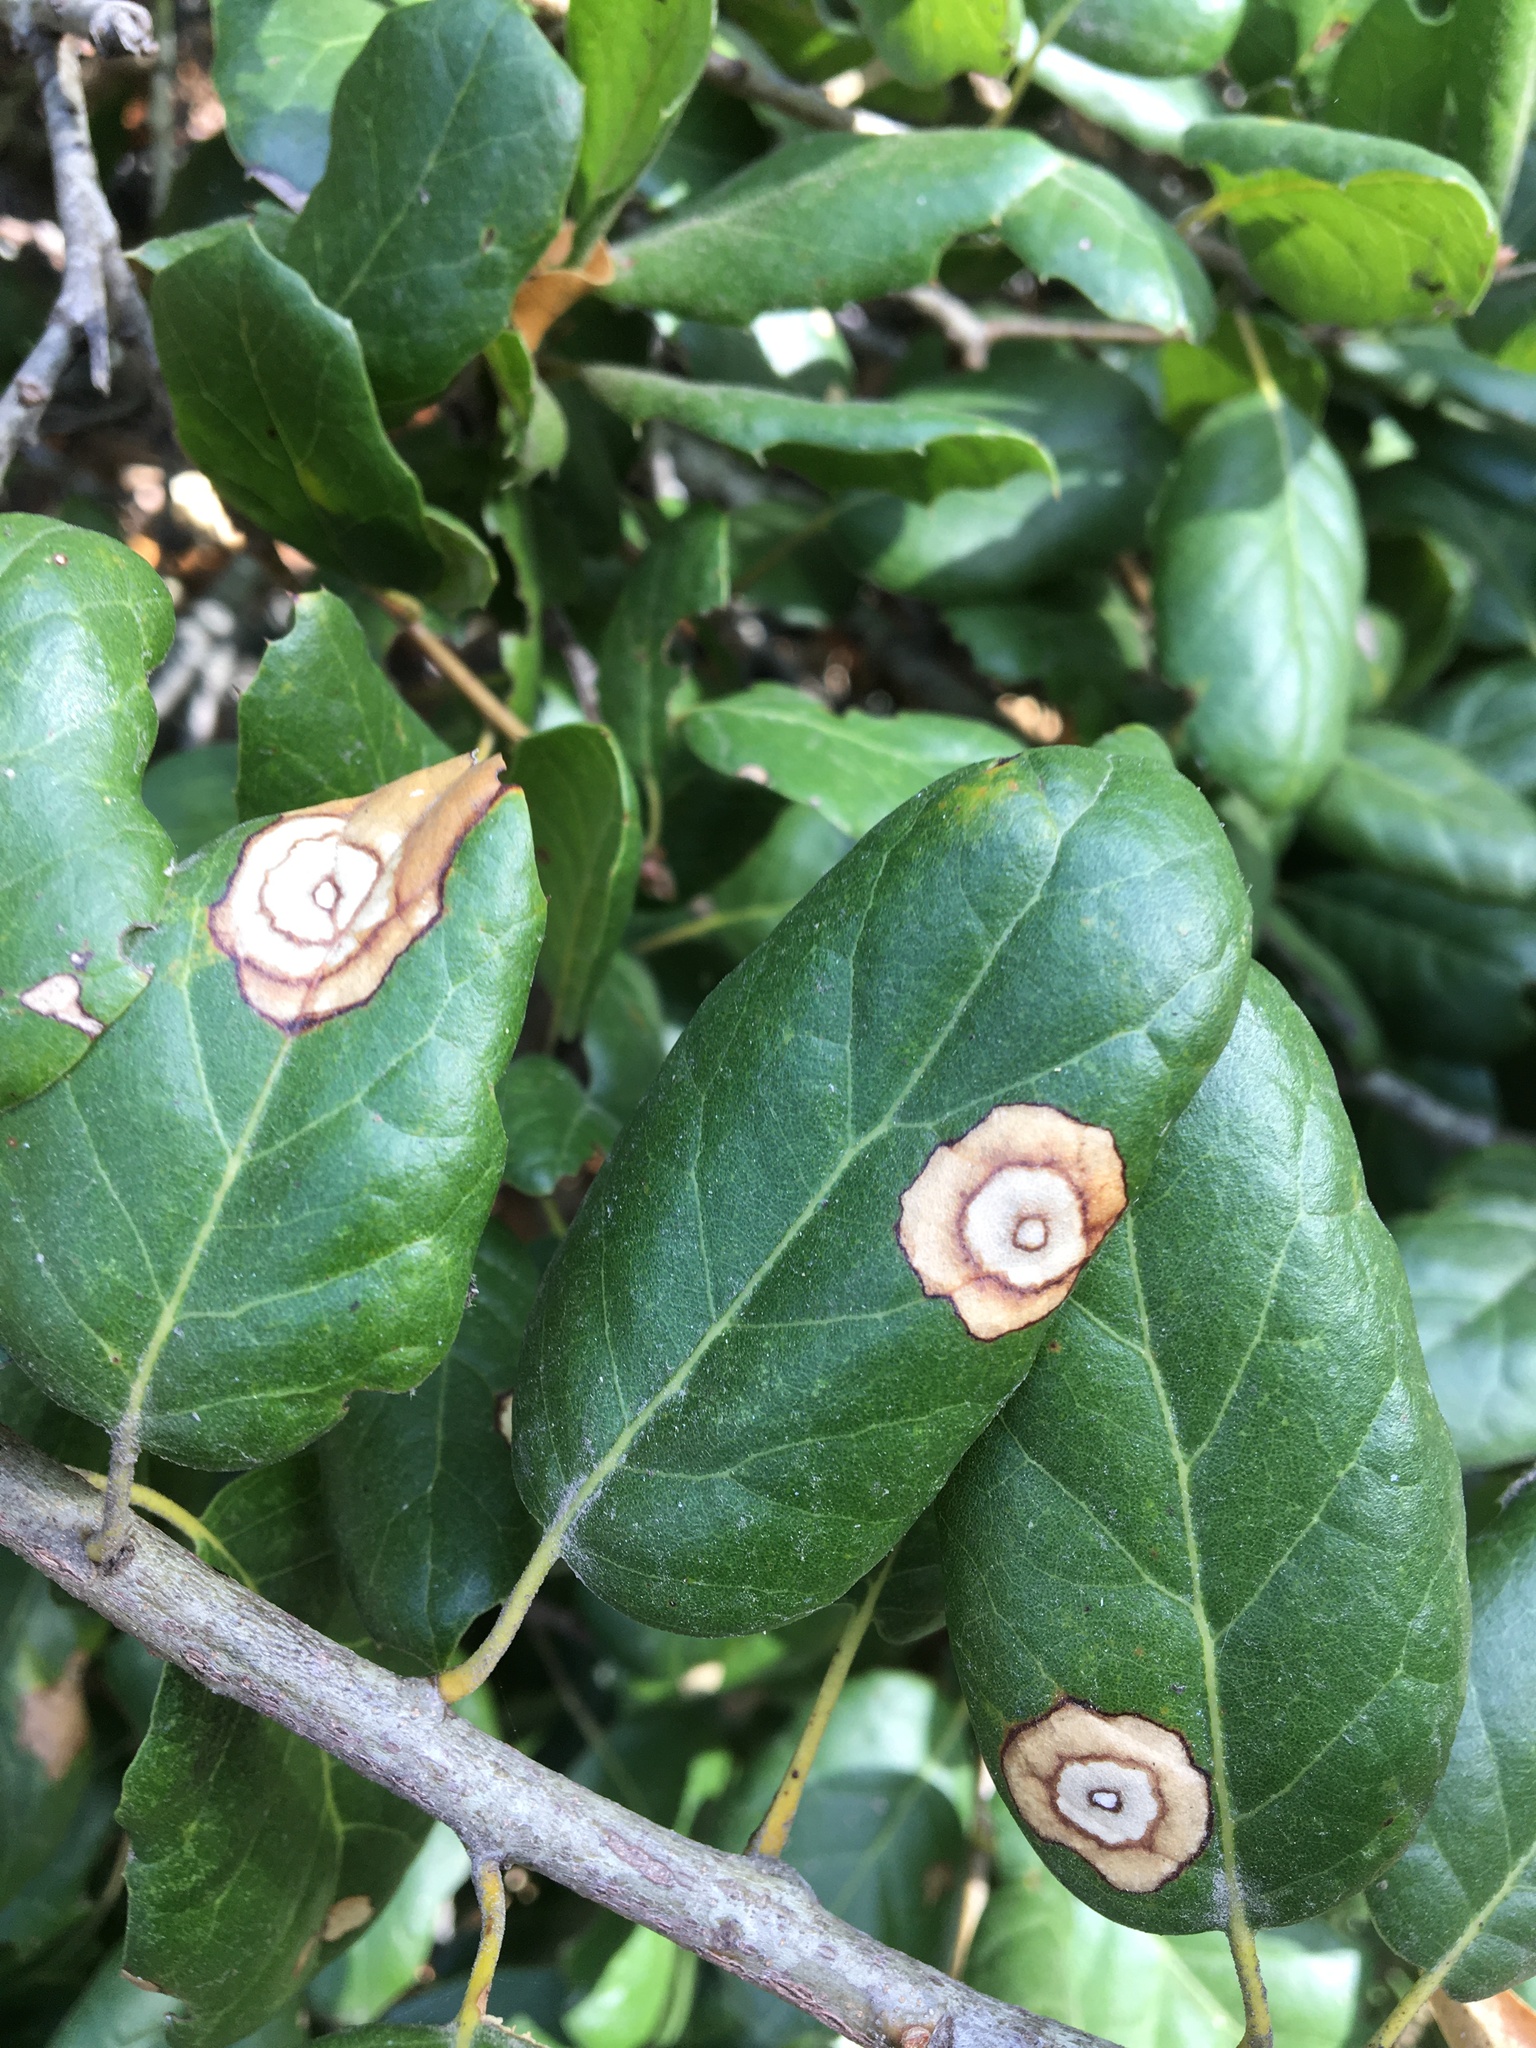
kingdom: Plantae
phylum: Tracheophyta
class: Magnoliopsida
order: Fagales
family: Fagaceae
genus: Quercus
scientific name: Quercus agrifolia
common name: California live oak
